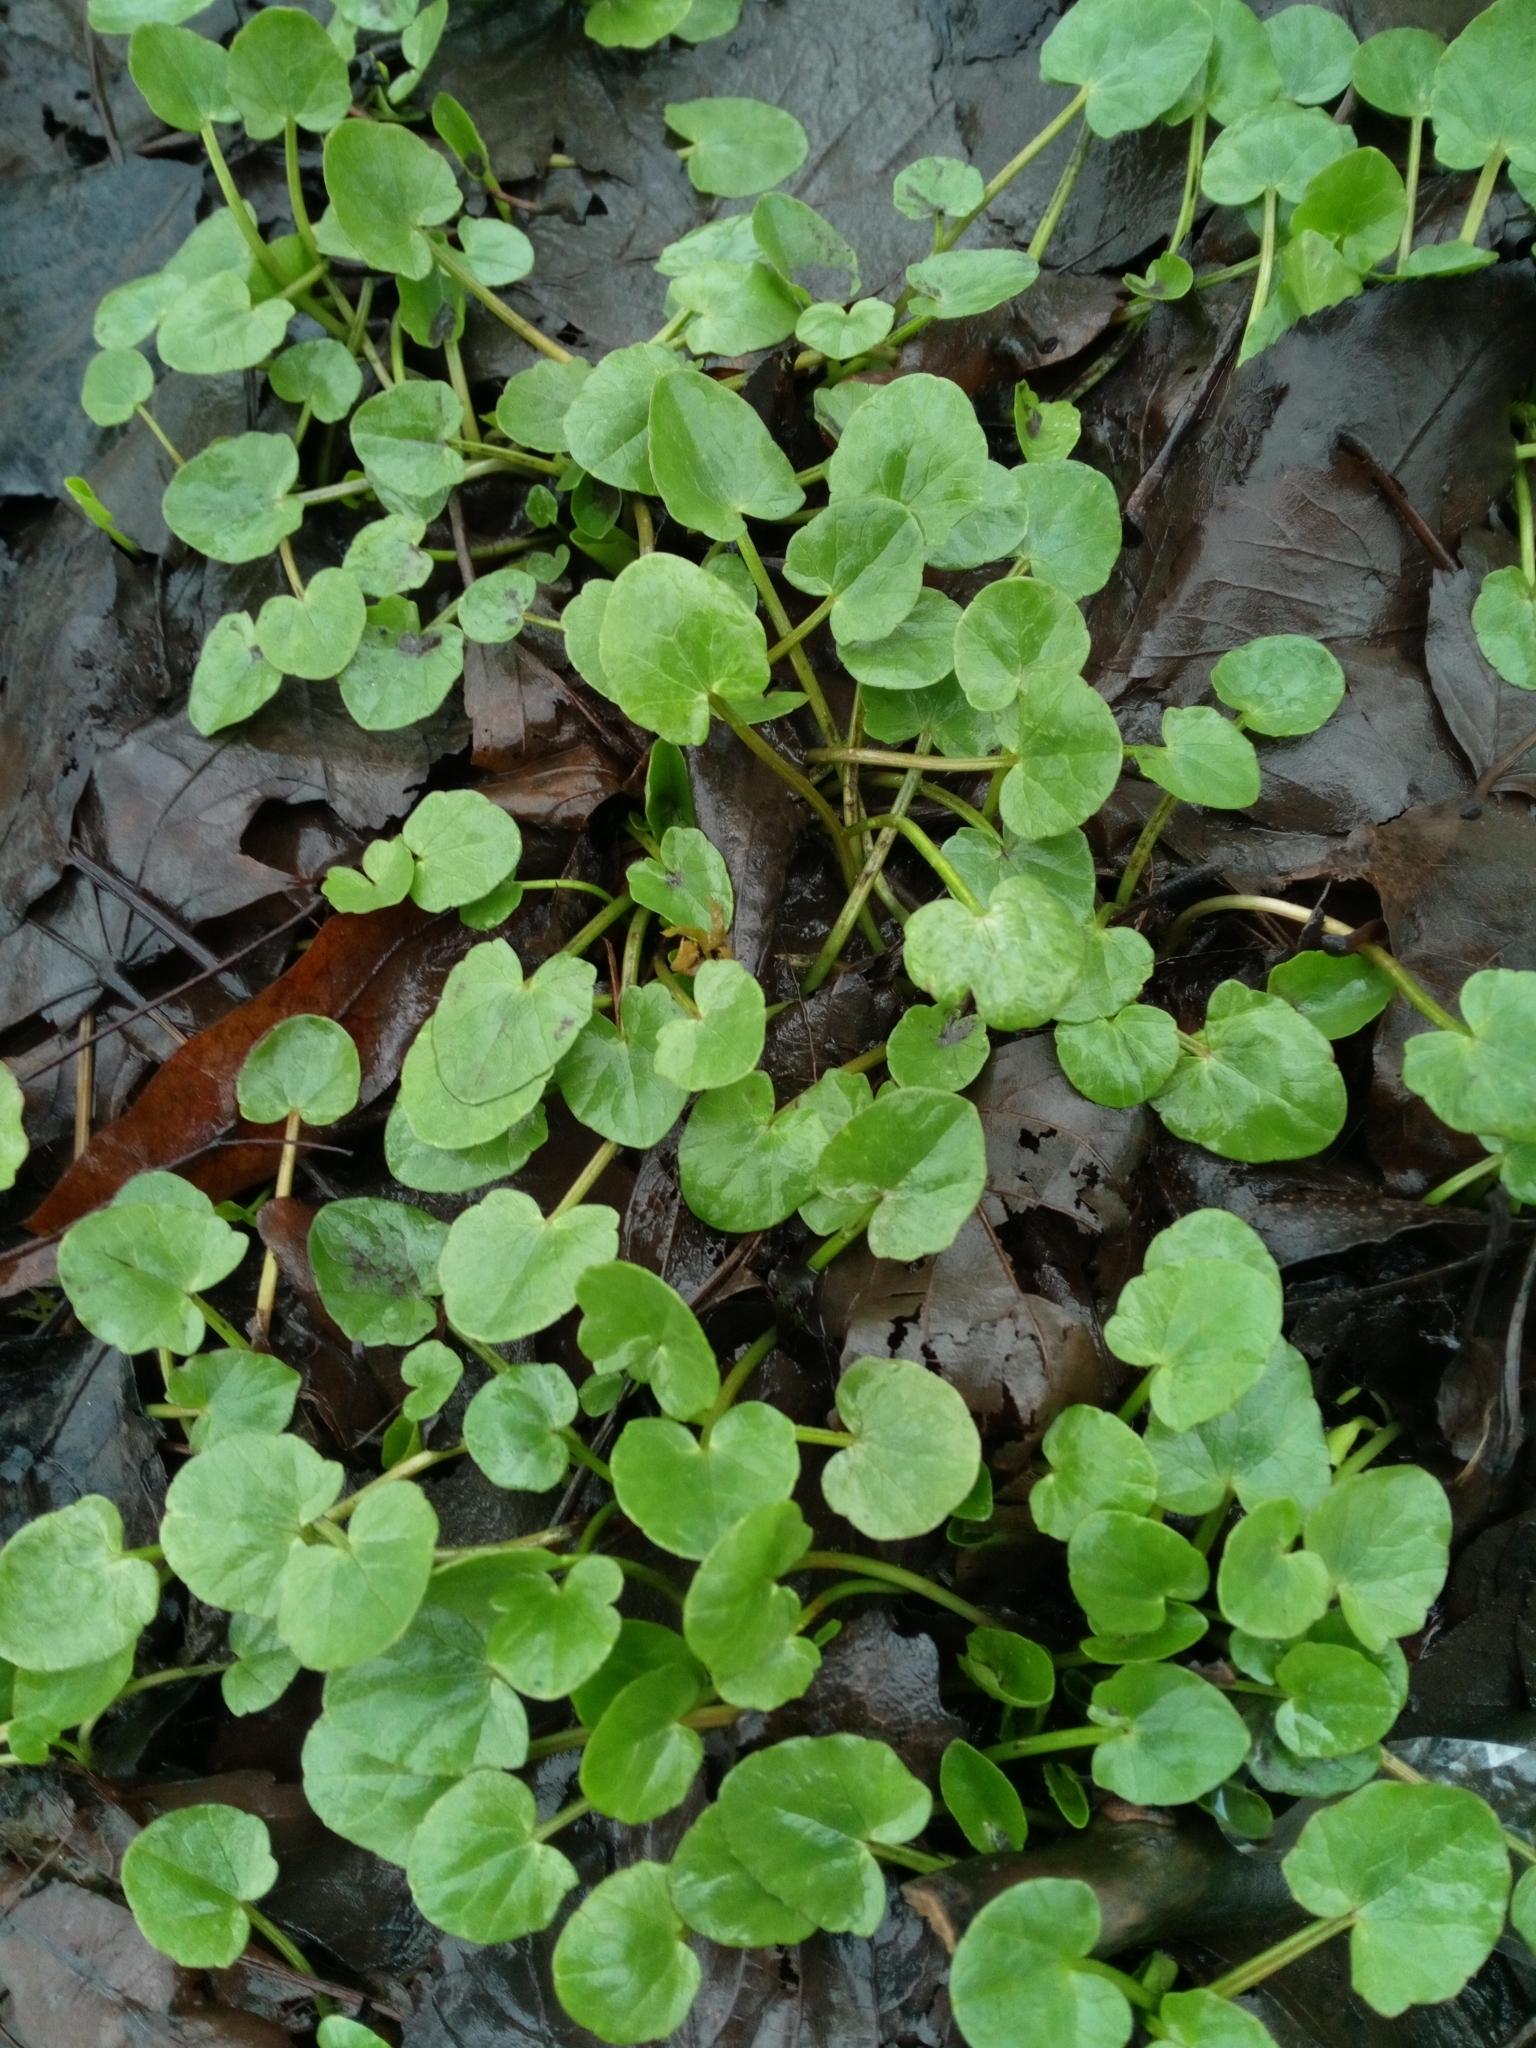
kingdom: Plantae
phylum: Tracheophyta
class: Magnoliopsida
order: Ranunculales
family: Ranunculaceae
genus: Ficaria
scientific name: Ficaria verna
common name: Lesser celandine
